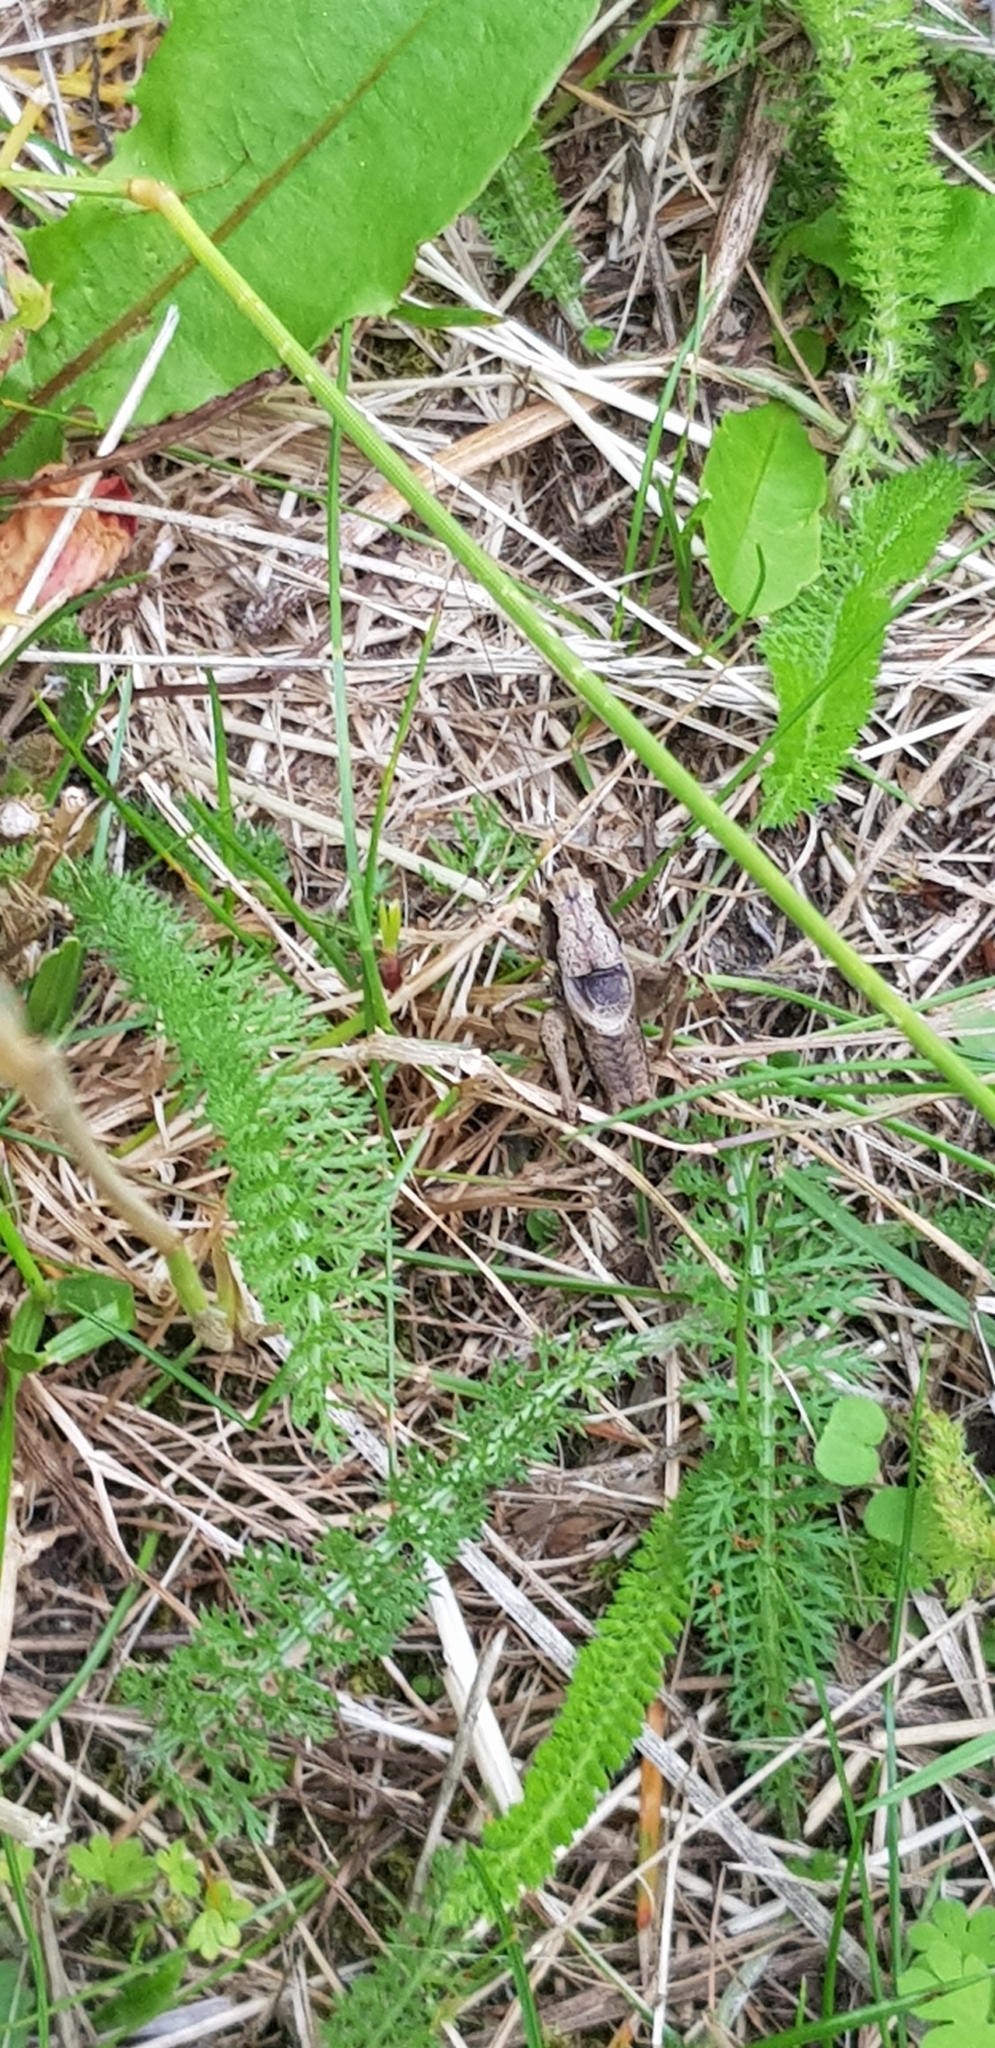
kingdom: Animalia
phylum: Arthropoda
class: Insecta
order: Orthoptera
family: Tettigoniidae
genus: Pholidoptera
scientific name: Pholidoptera griseoaptera
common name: Dark bush-cricket
